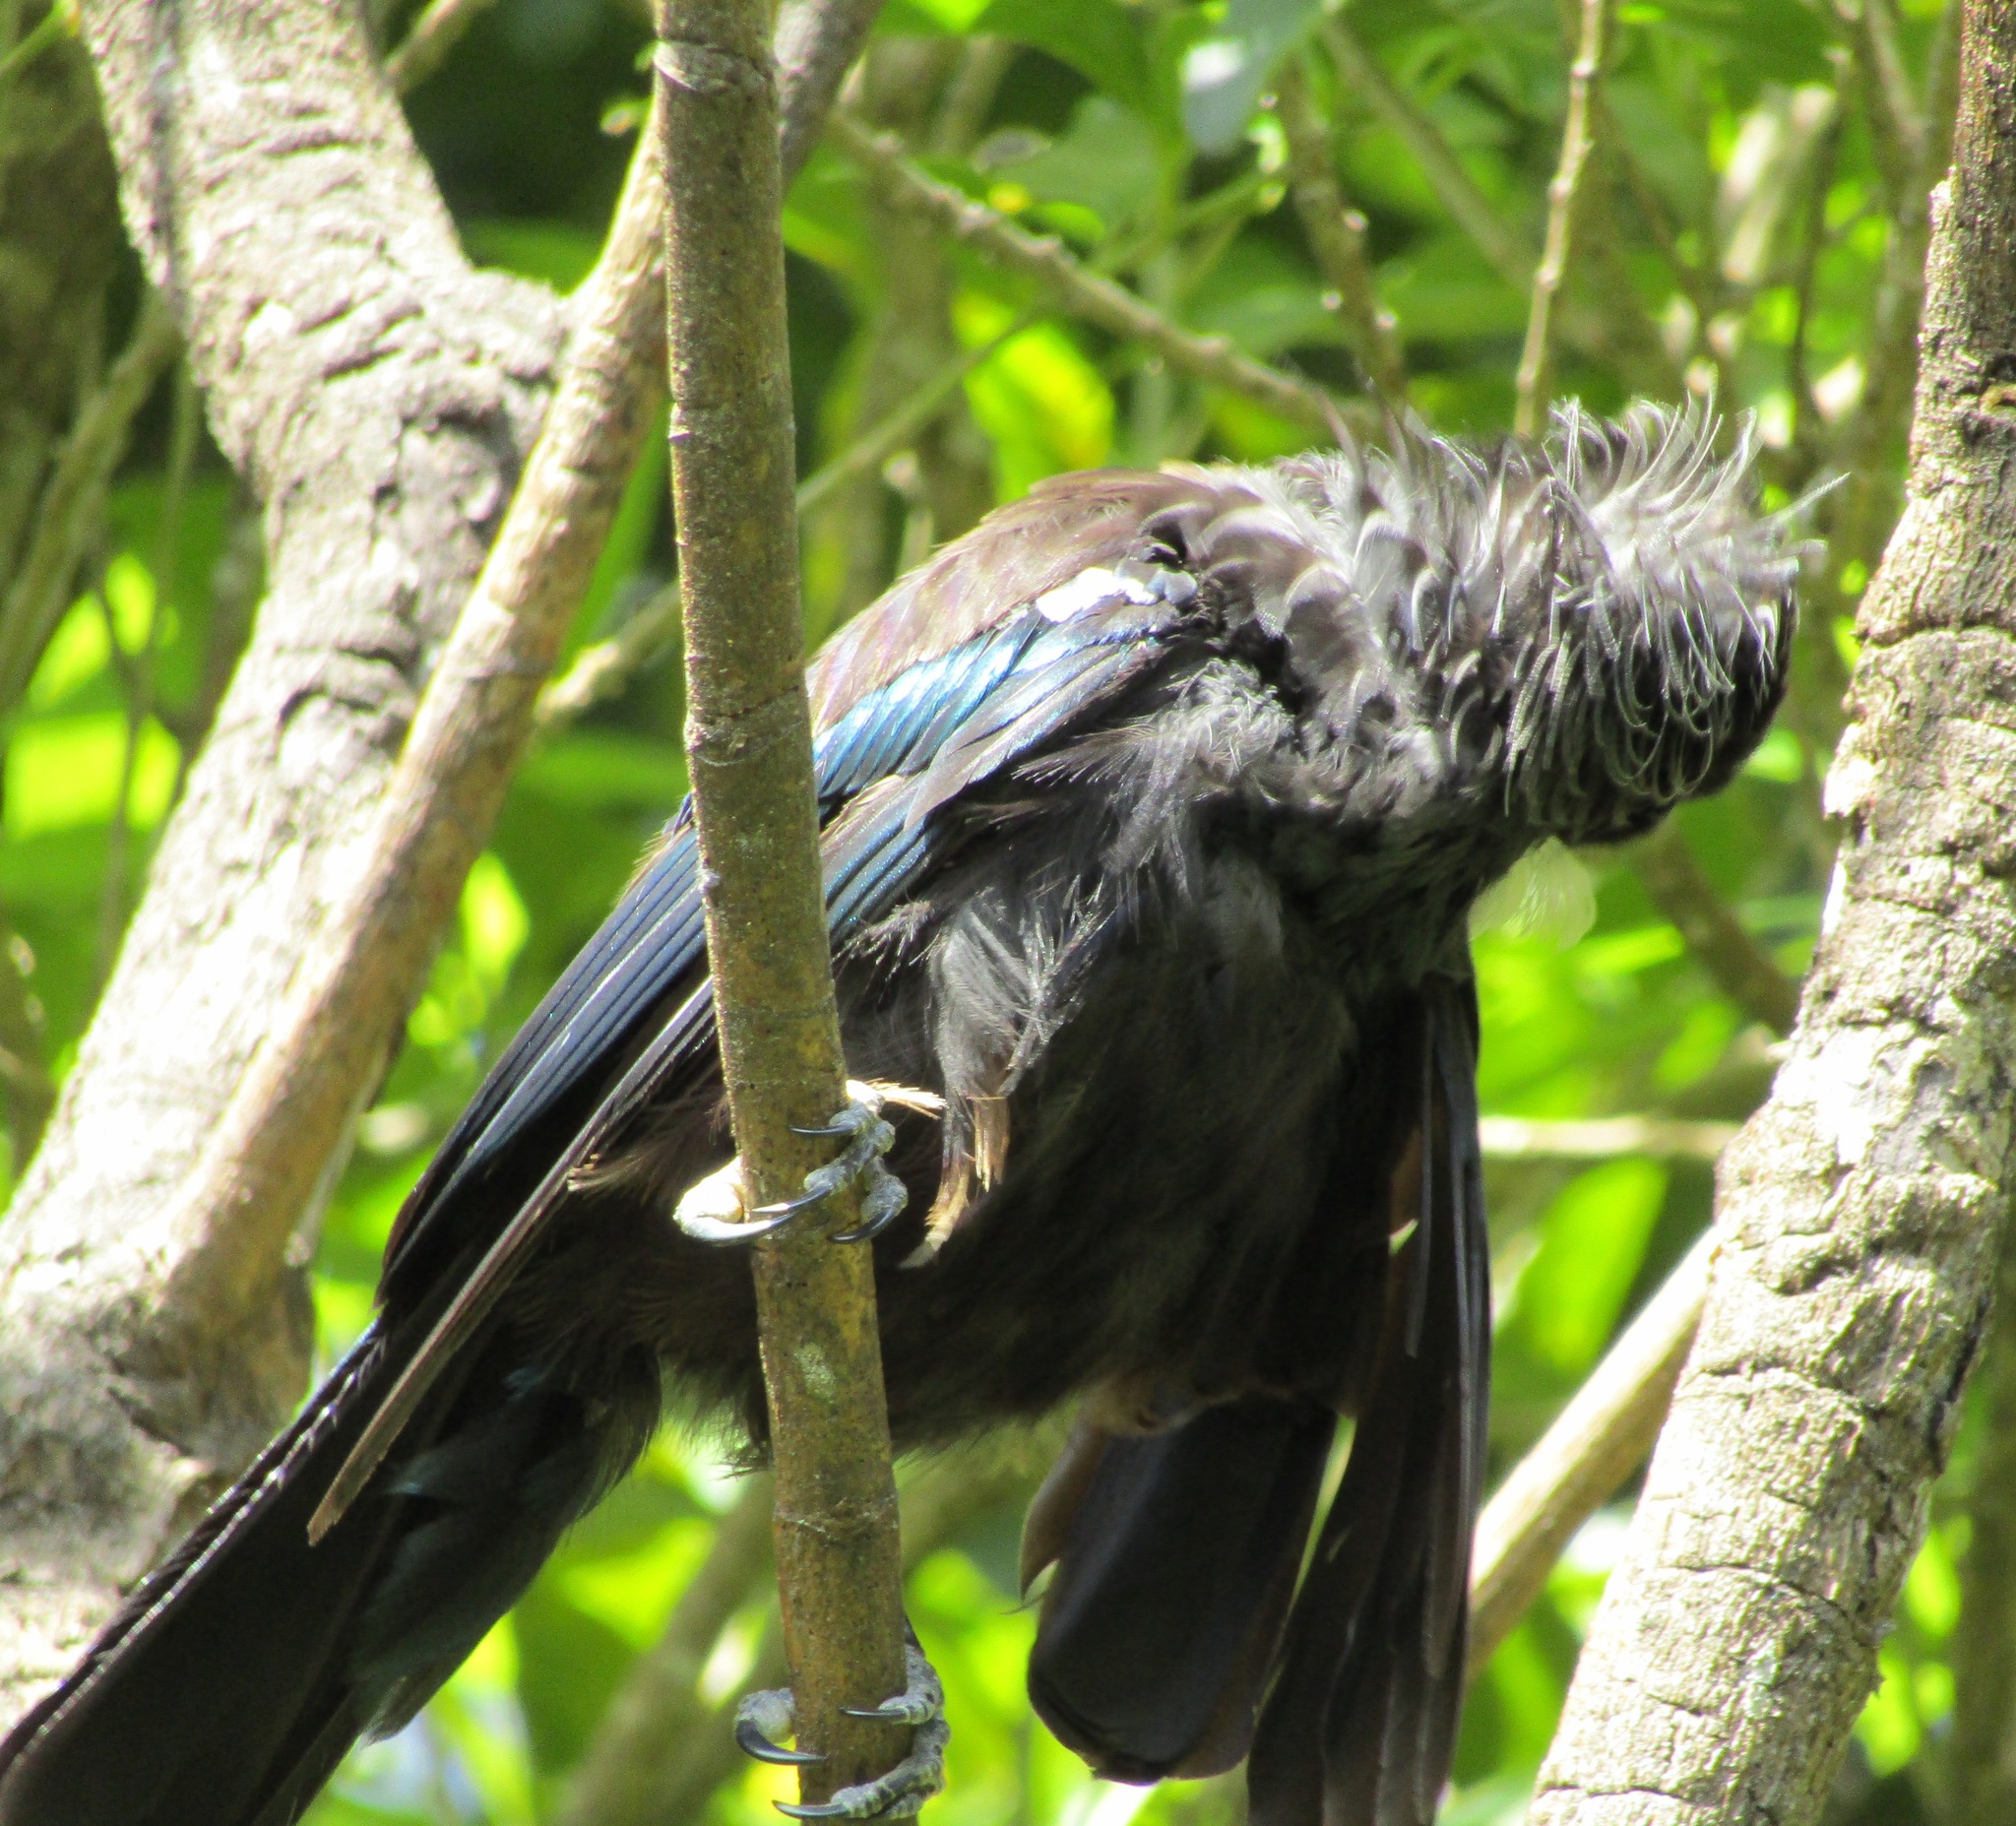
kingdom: Animalia
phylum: Chordata
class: Aves
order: Passeriformes
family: Meliphagidae
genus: Prosthemadera
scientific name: Prosthemadera novaeseelandiae
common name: Tui
